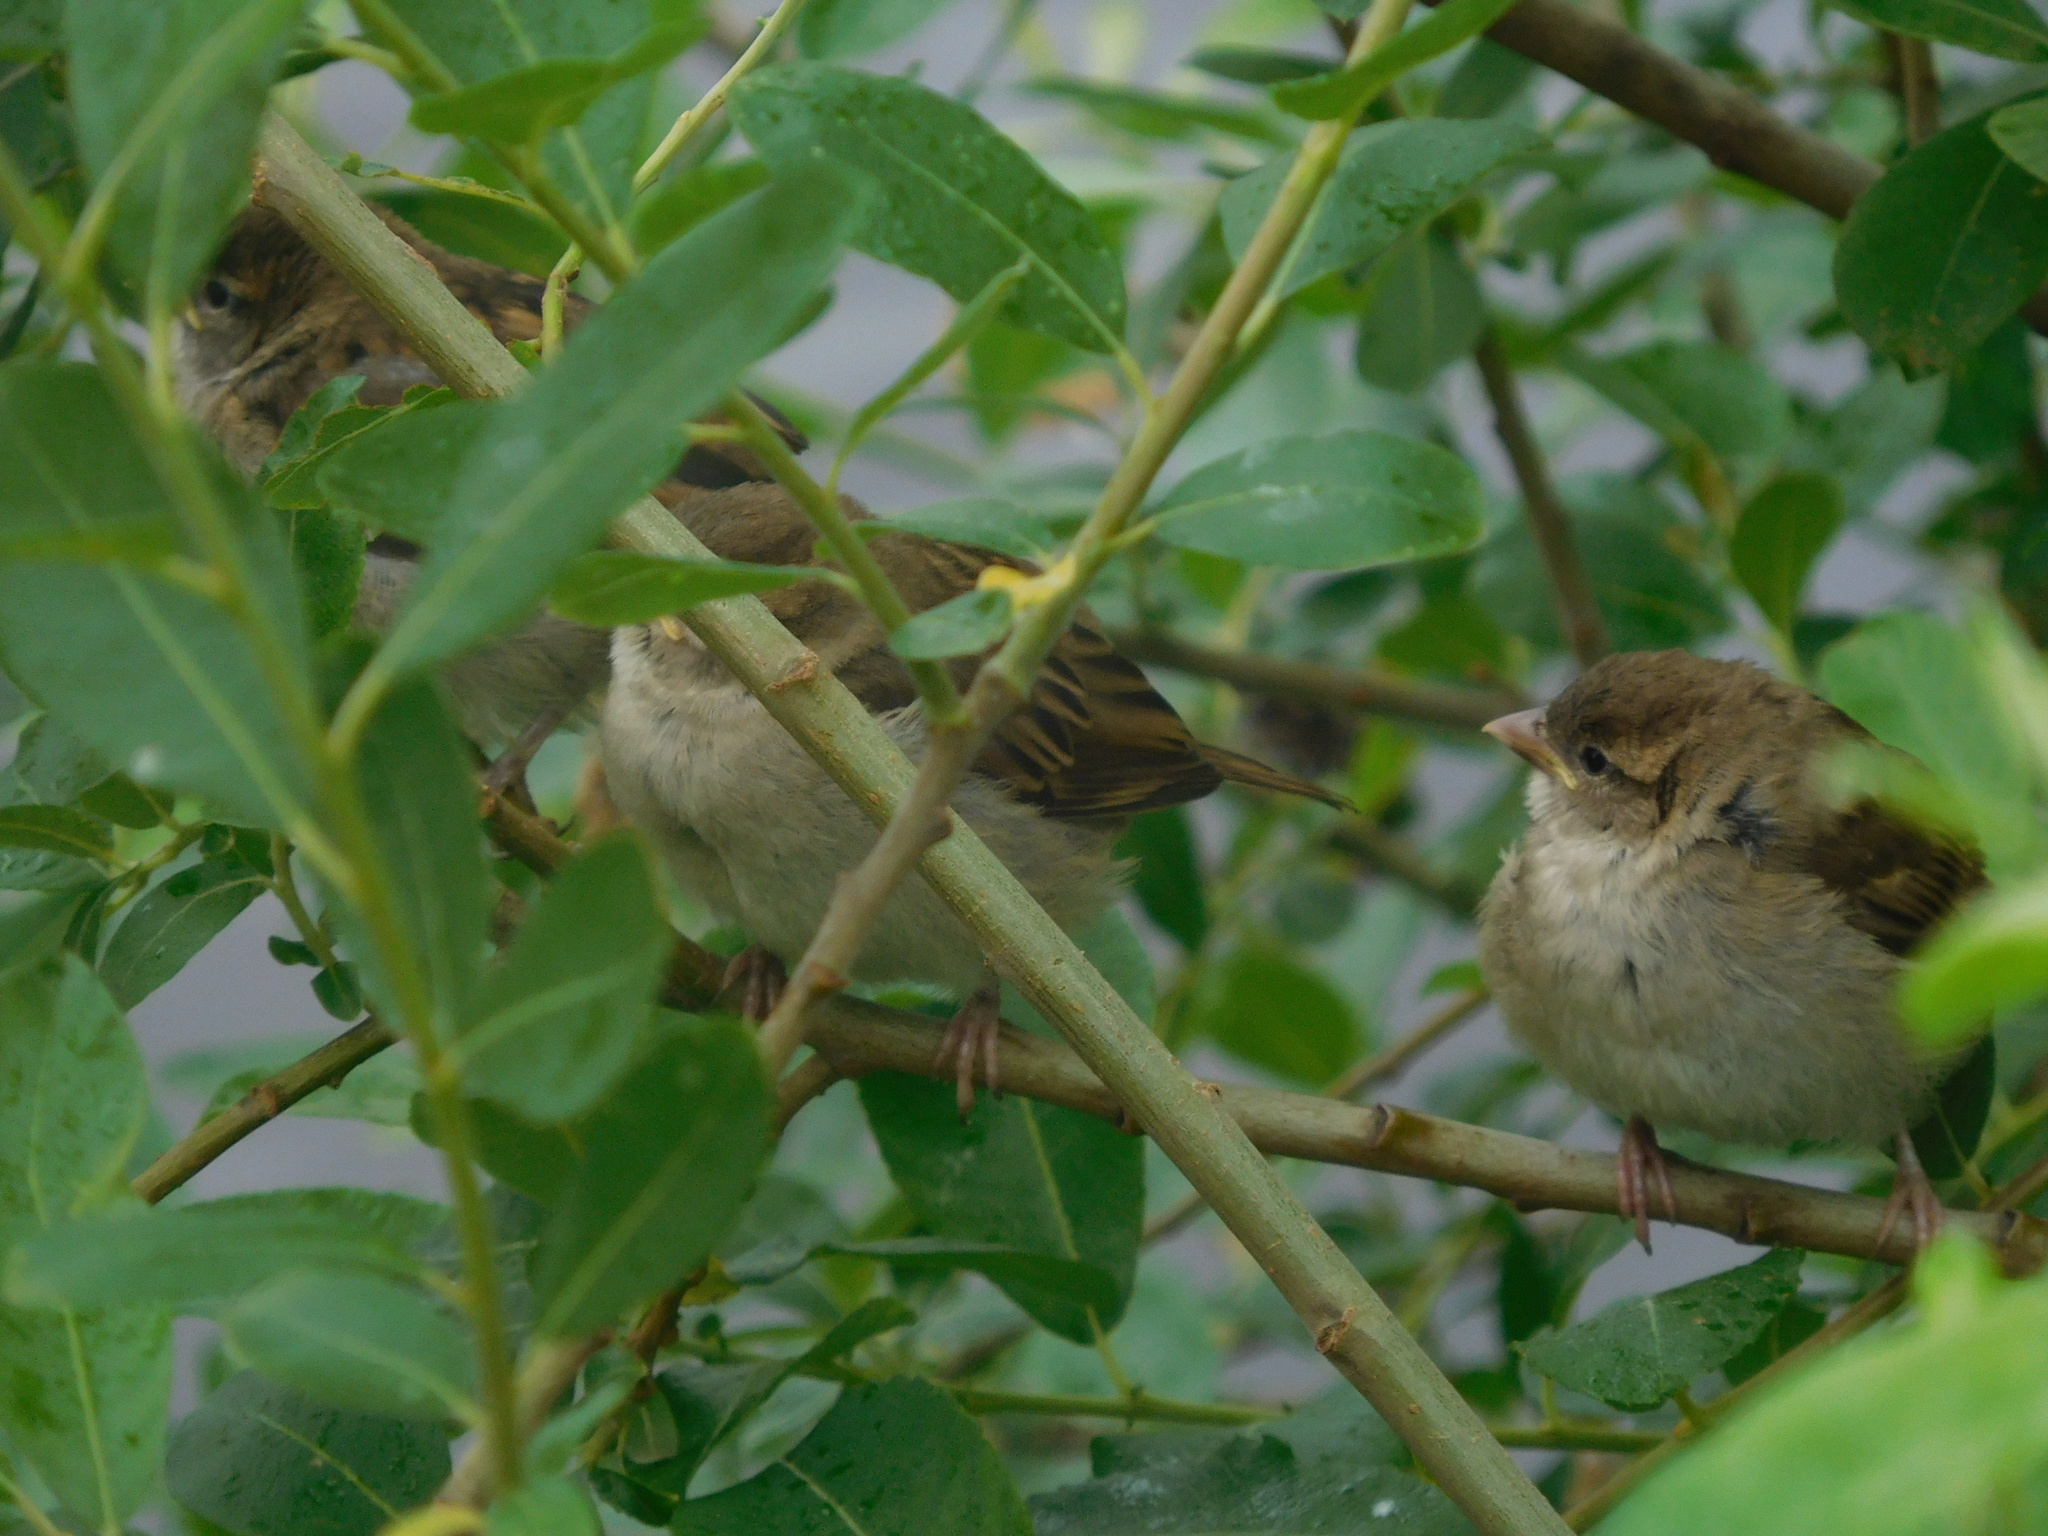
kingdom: Animalia
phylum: Chordata
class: Aves
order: Passeriformes
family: Passeridae
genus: Passer
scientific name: Passer domesticus
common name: House sparrow
